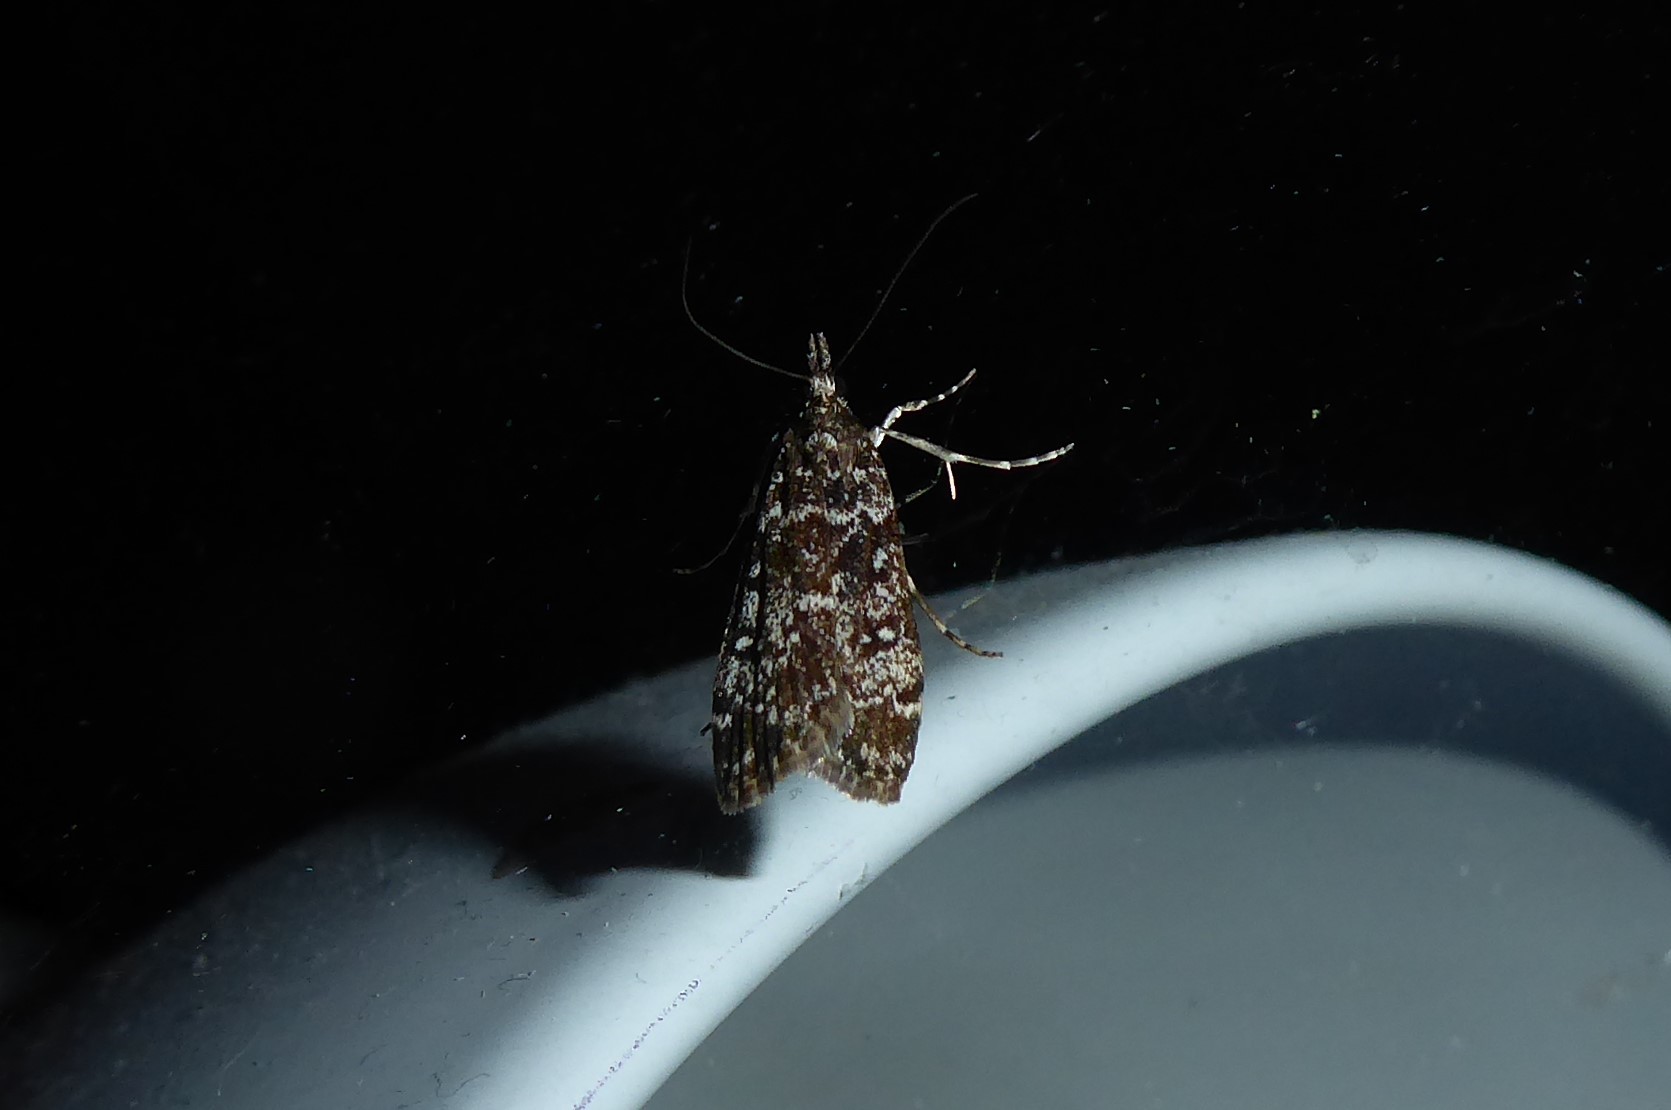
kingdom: Animalia
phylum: Arthropoda
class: Insecta
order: Lepidoptera
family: Crambidae
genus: Eudonia
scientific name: Eudonia philerga
